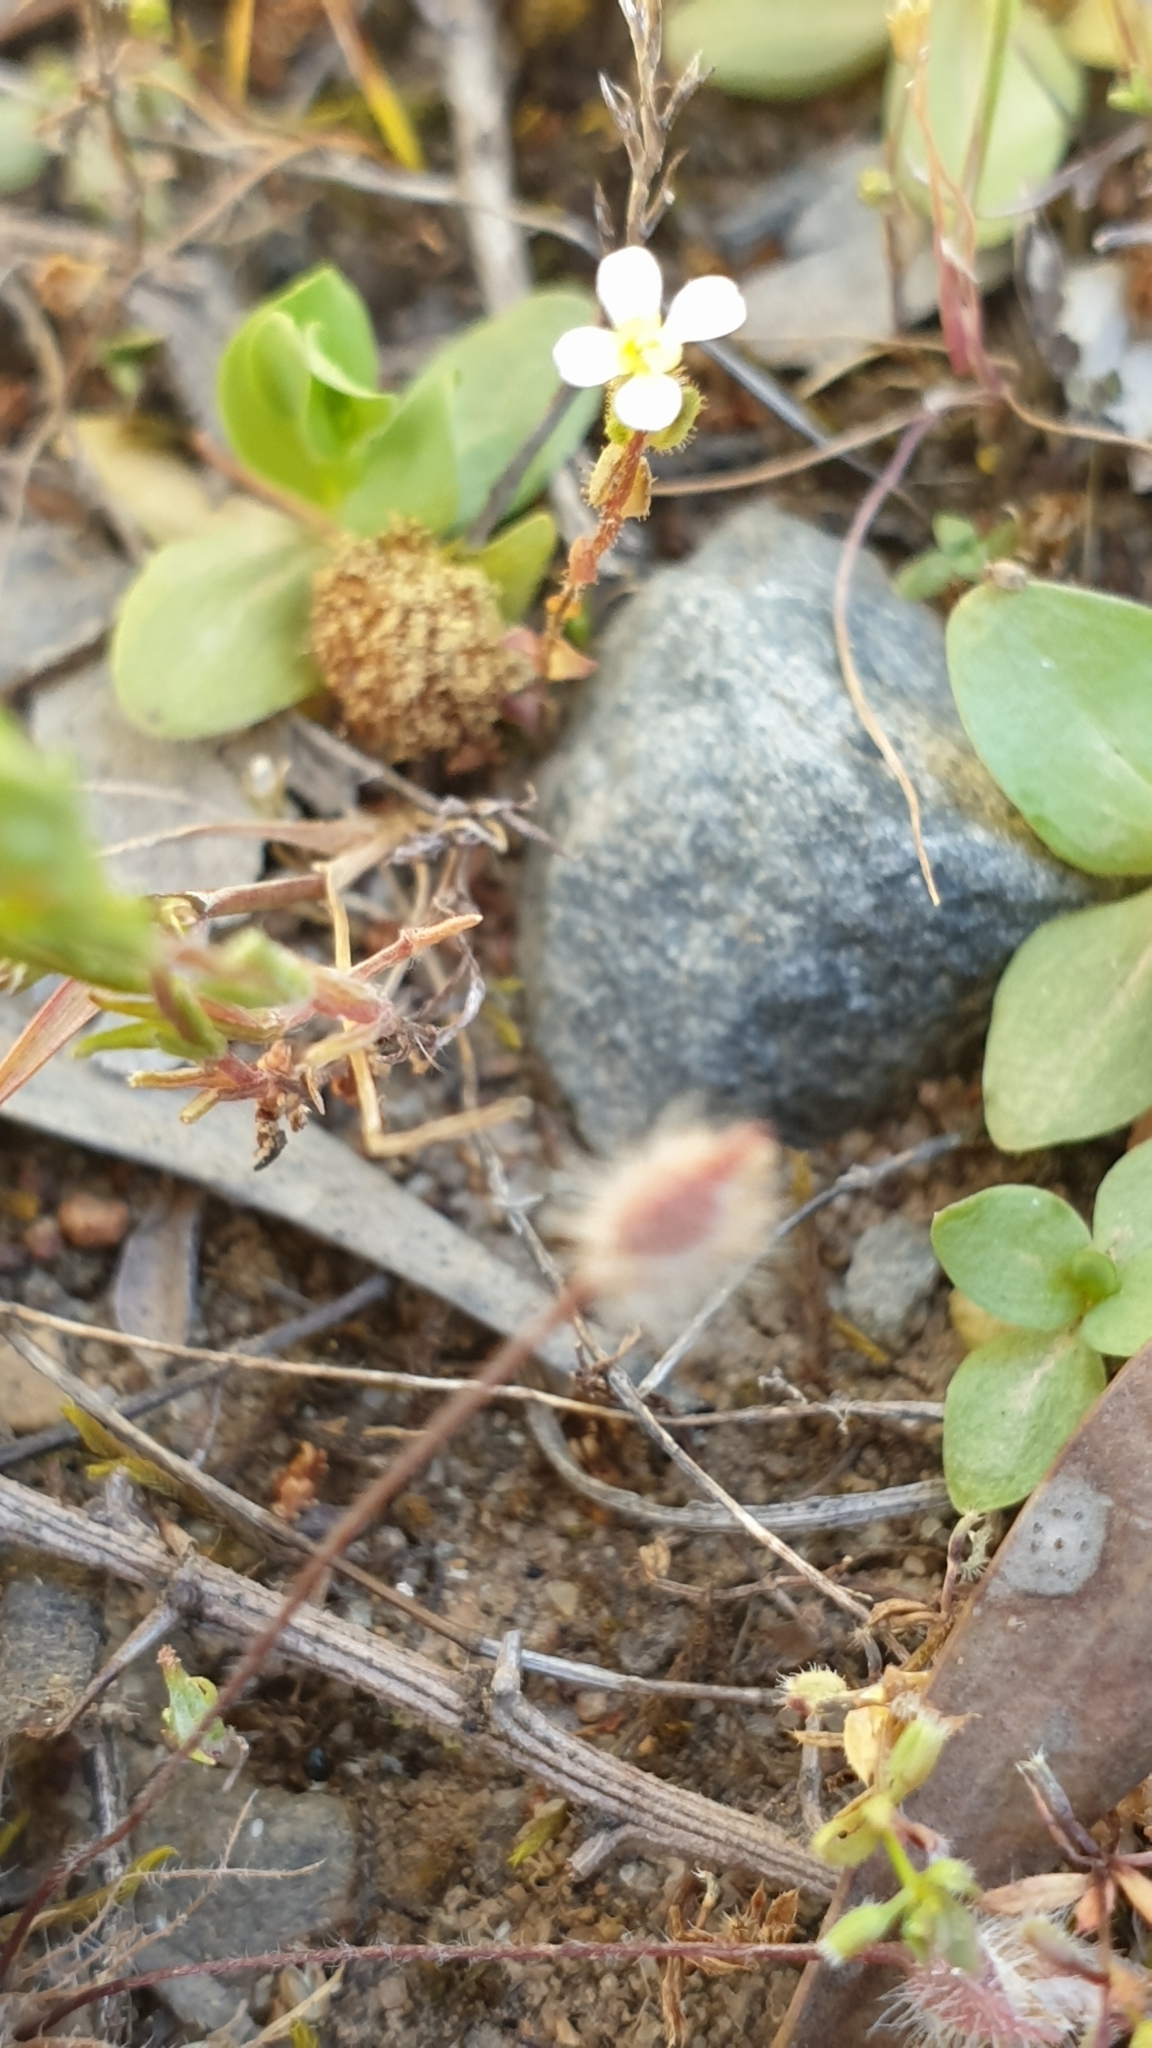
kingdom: Plantae
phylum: Tracheophyta
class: Magnoliopsida
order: Asterales
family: Stylidiaceae
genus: Levenhookia
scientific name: Levenhookia dubia
